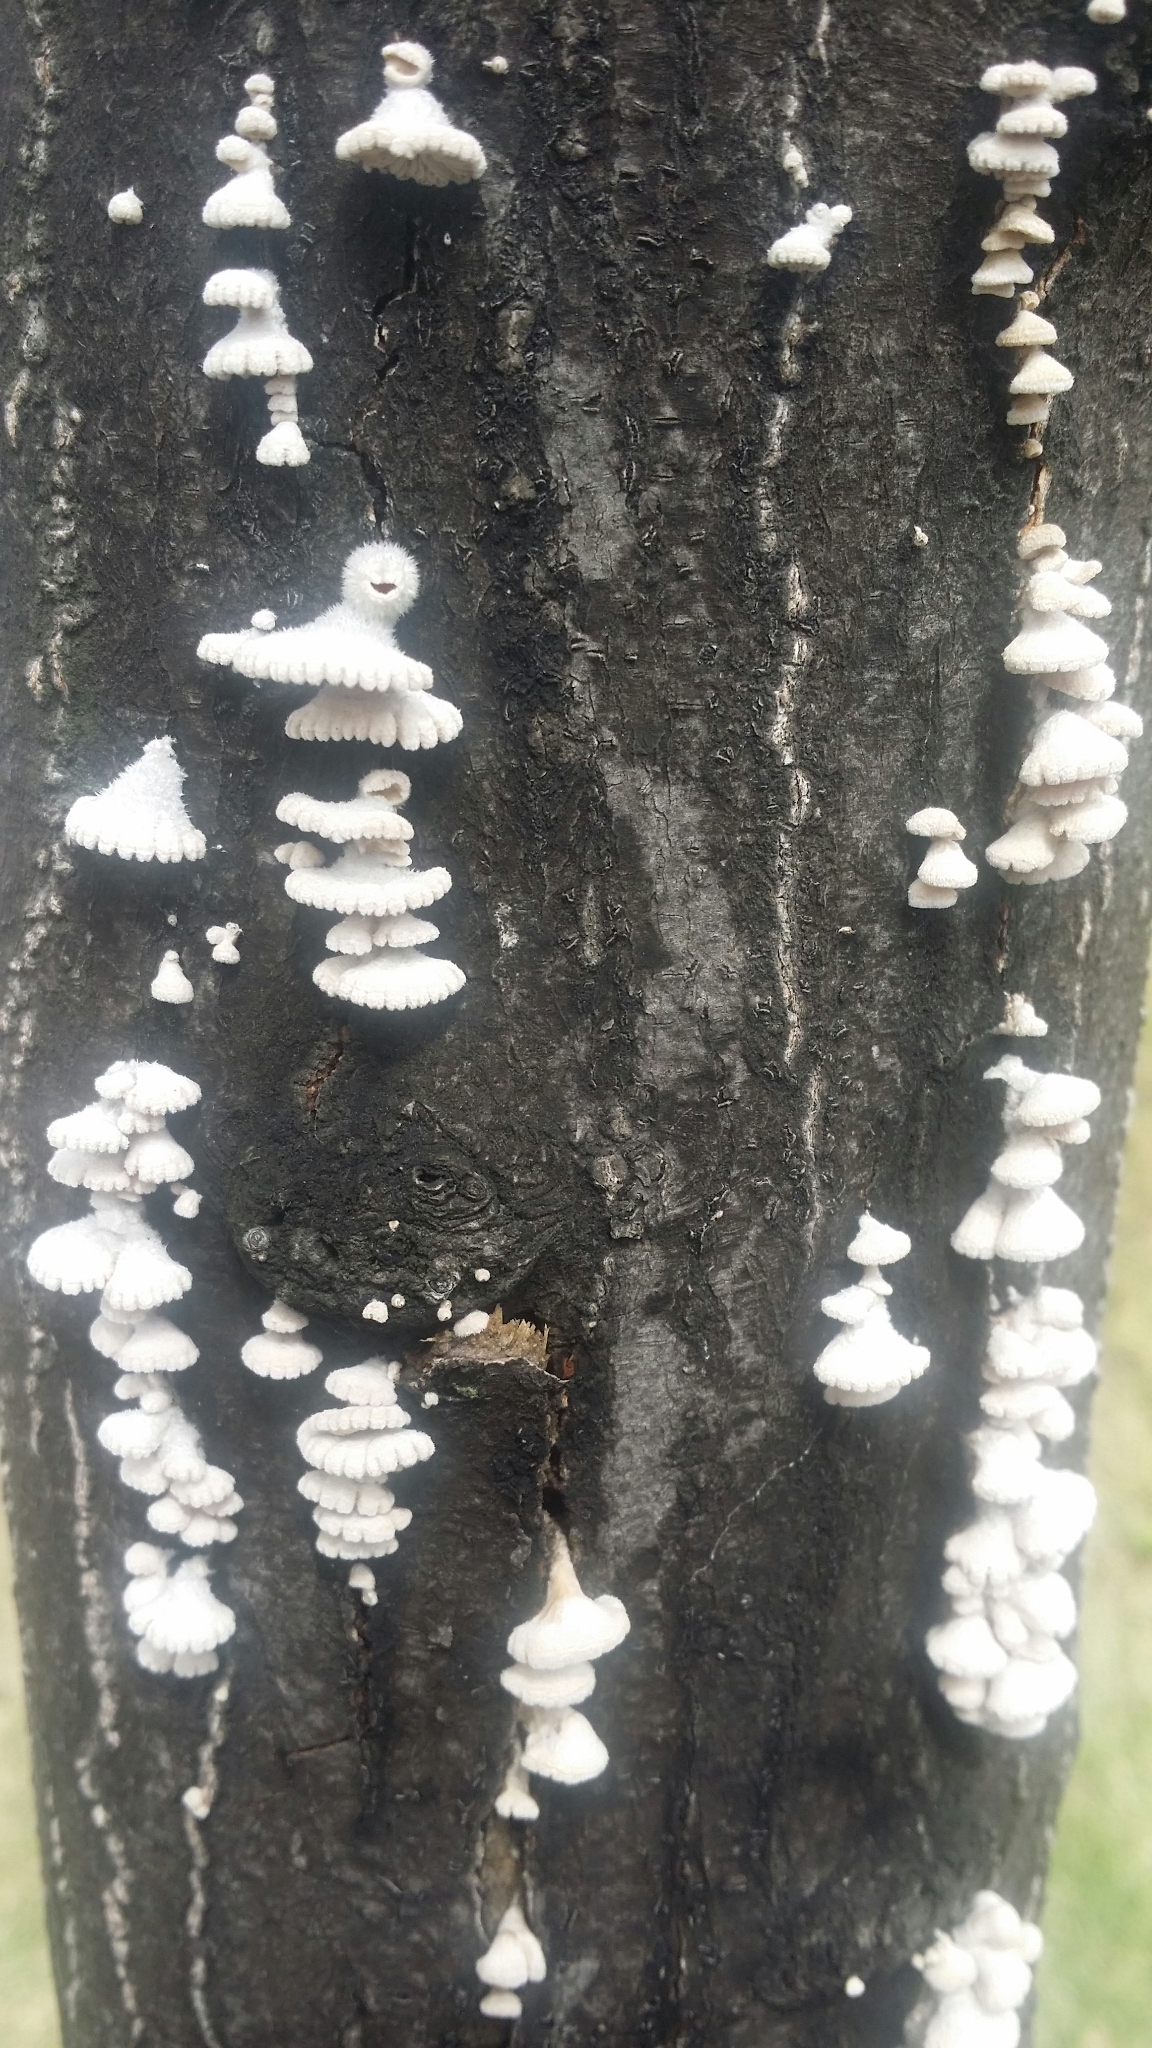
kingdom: Fungi
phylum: Basidiomycota
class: Agaricomycetes
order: Agaricales
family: Schizophyllaceae
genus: Schizophyllum
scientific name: Schizophyllum commune
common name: Common porecrust
